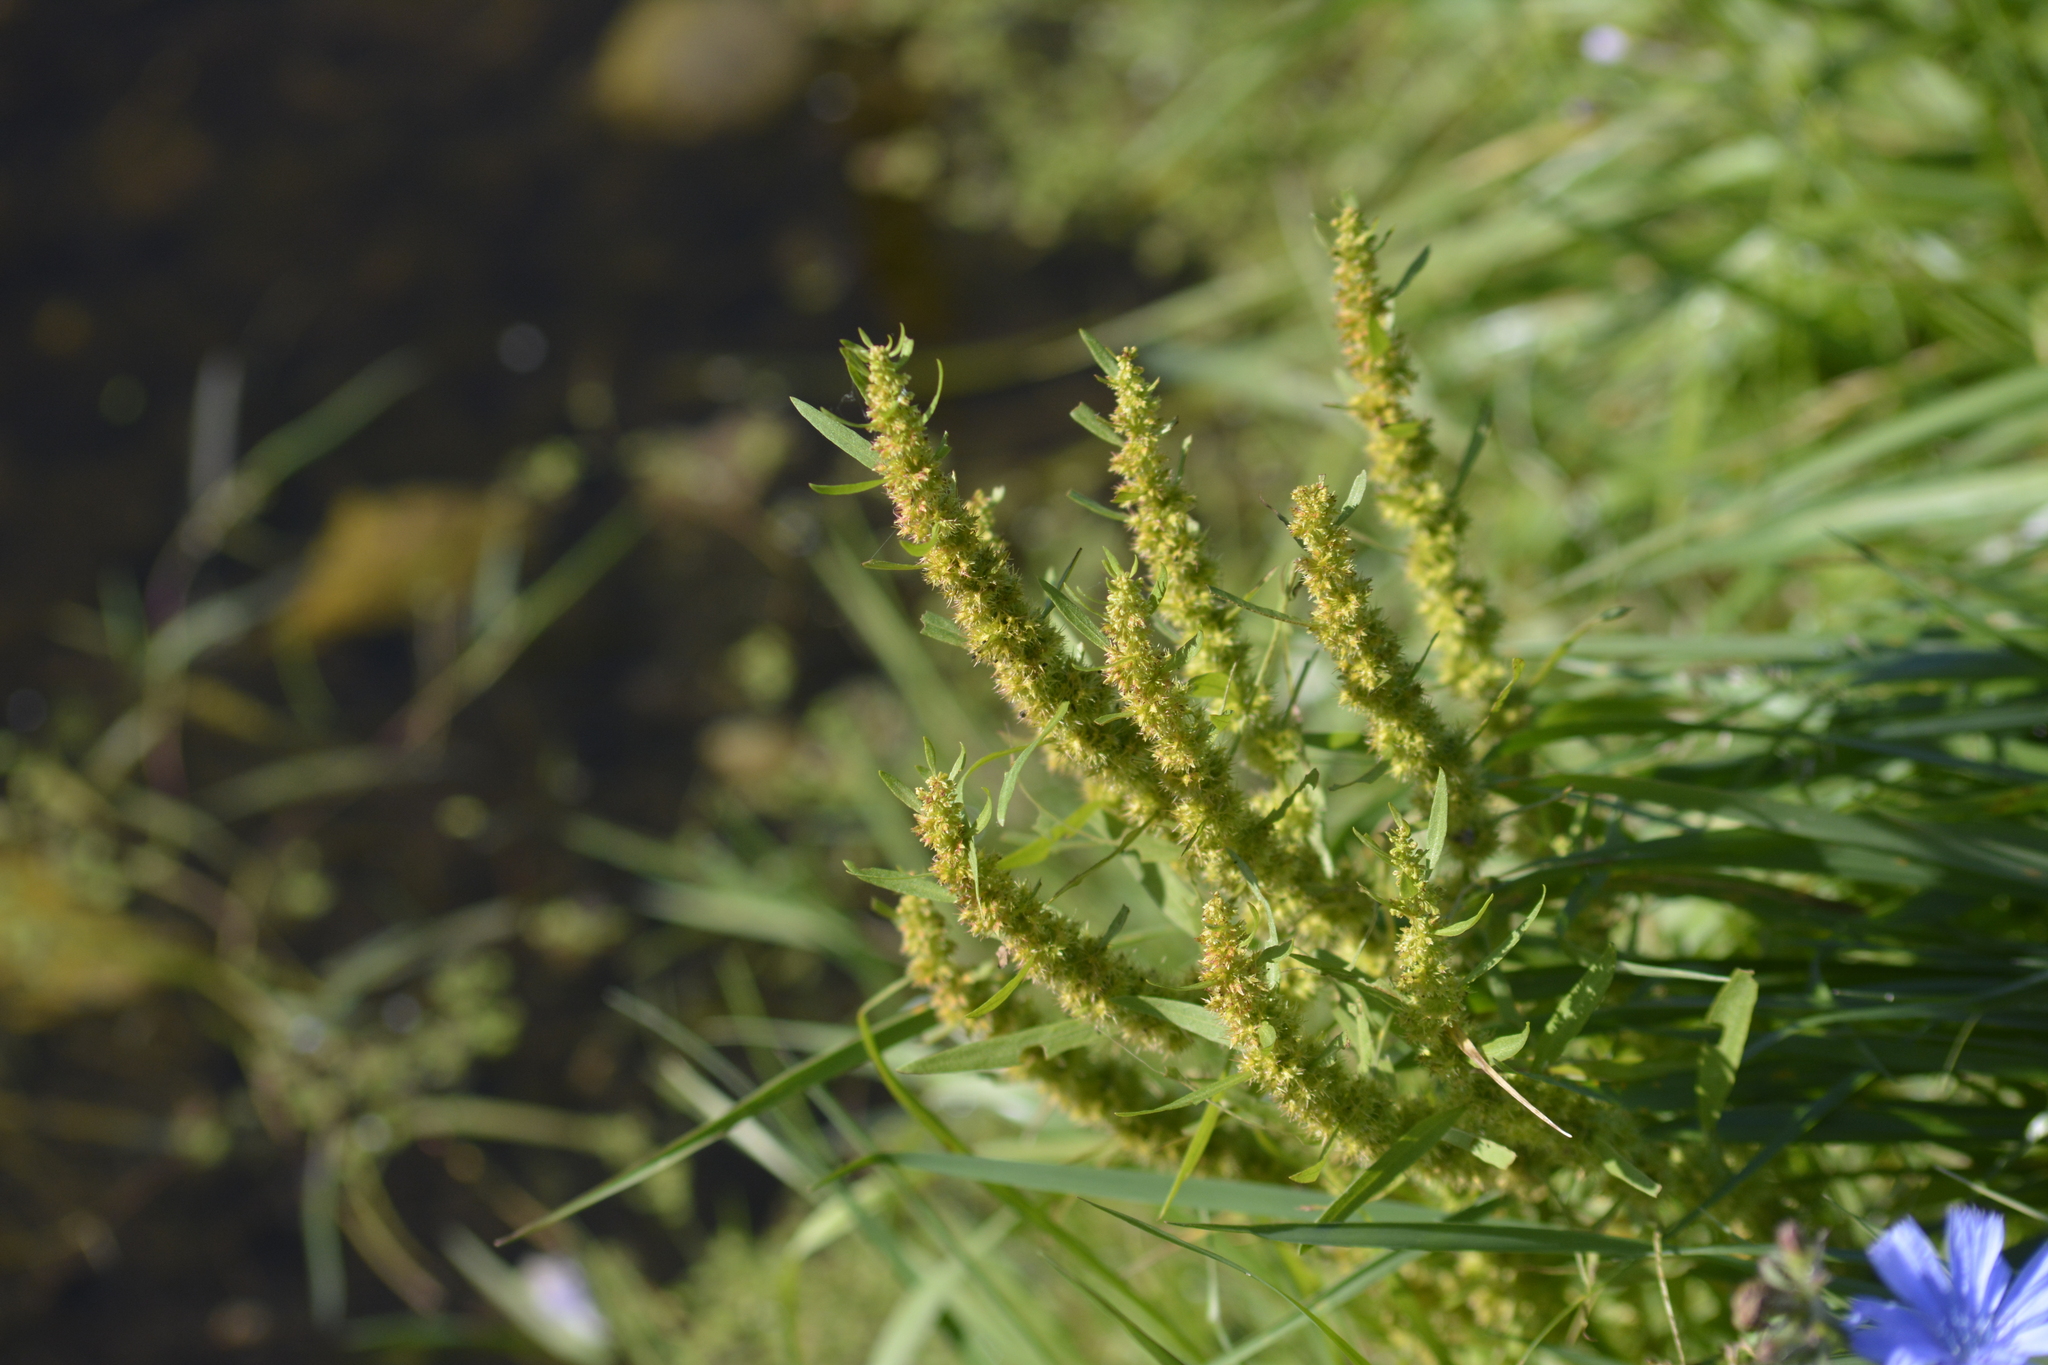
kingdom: Plantae
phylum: Tracheophyta
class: Magnoliopsida
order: Caryophyllales
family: Polygonaceae
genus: Rumex
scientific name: Rumex maritimus
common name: Golden dock
